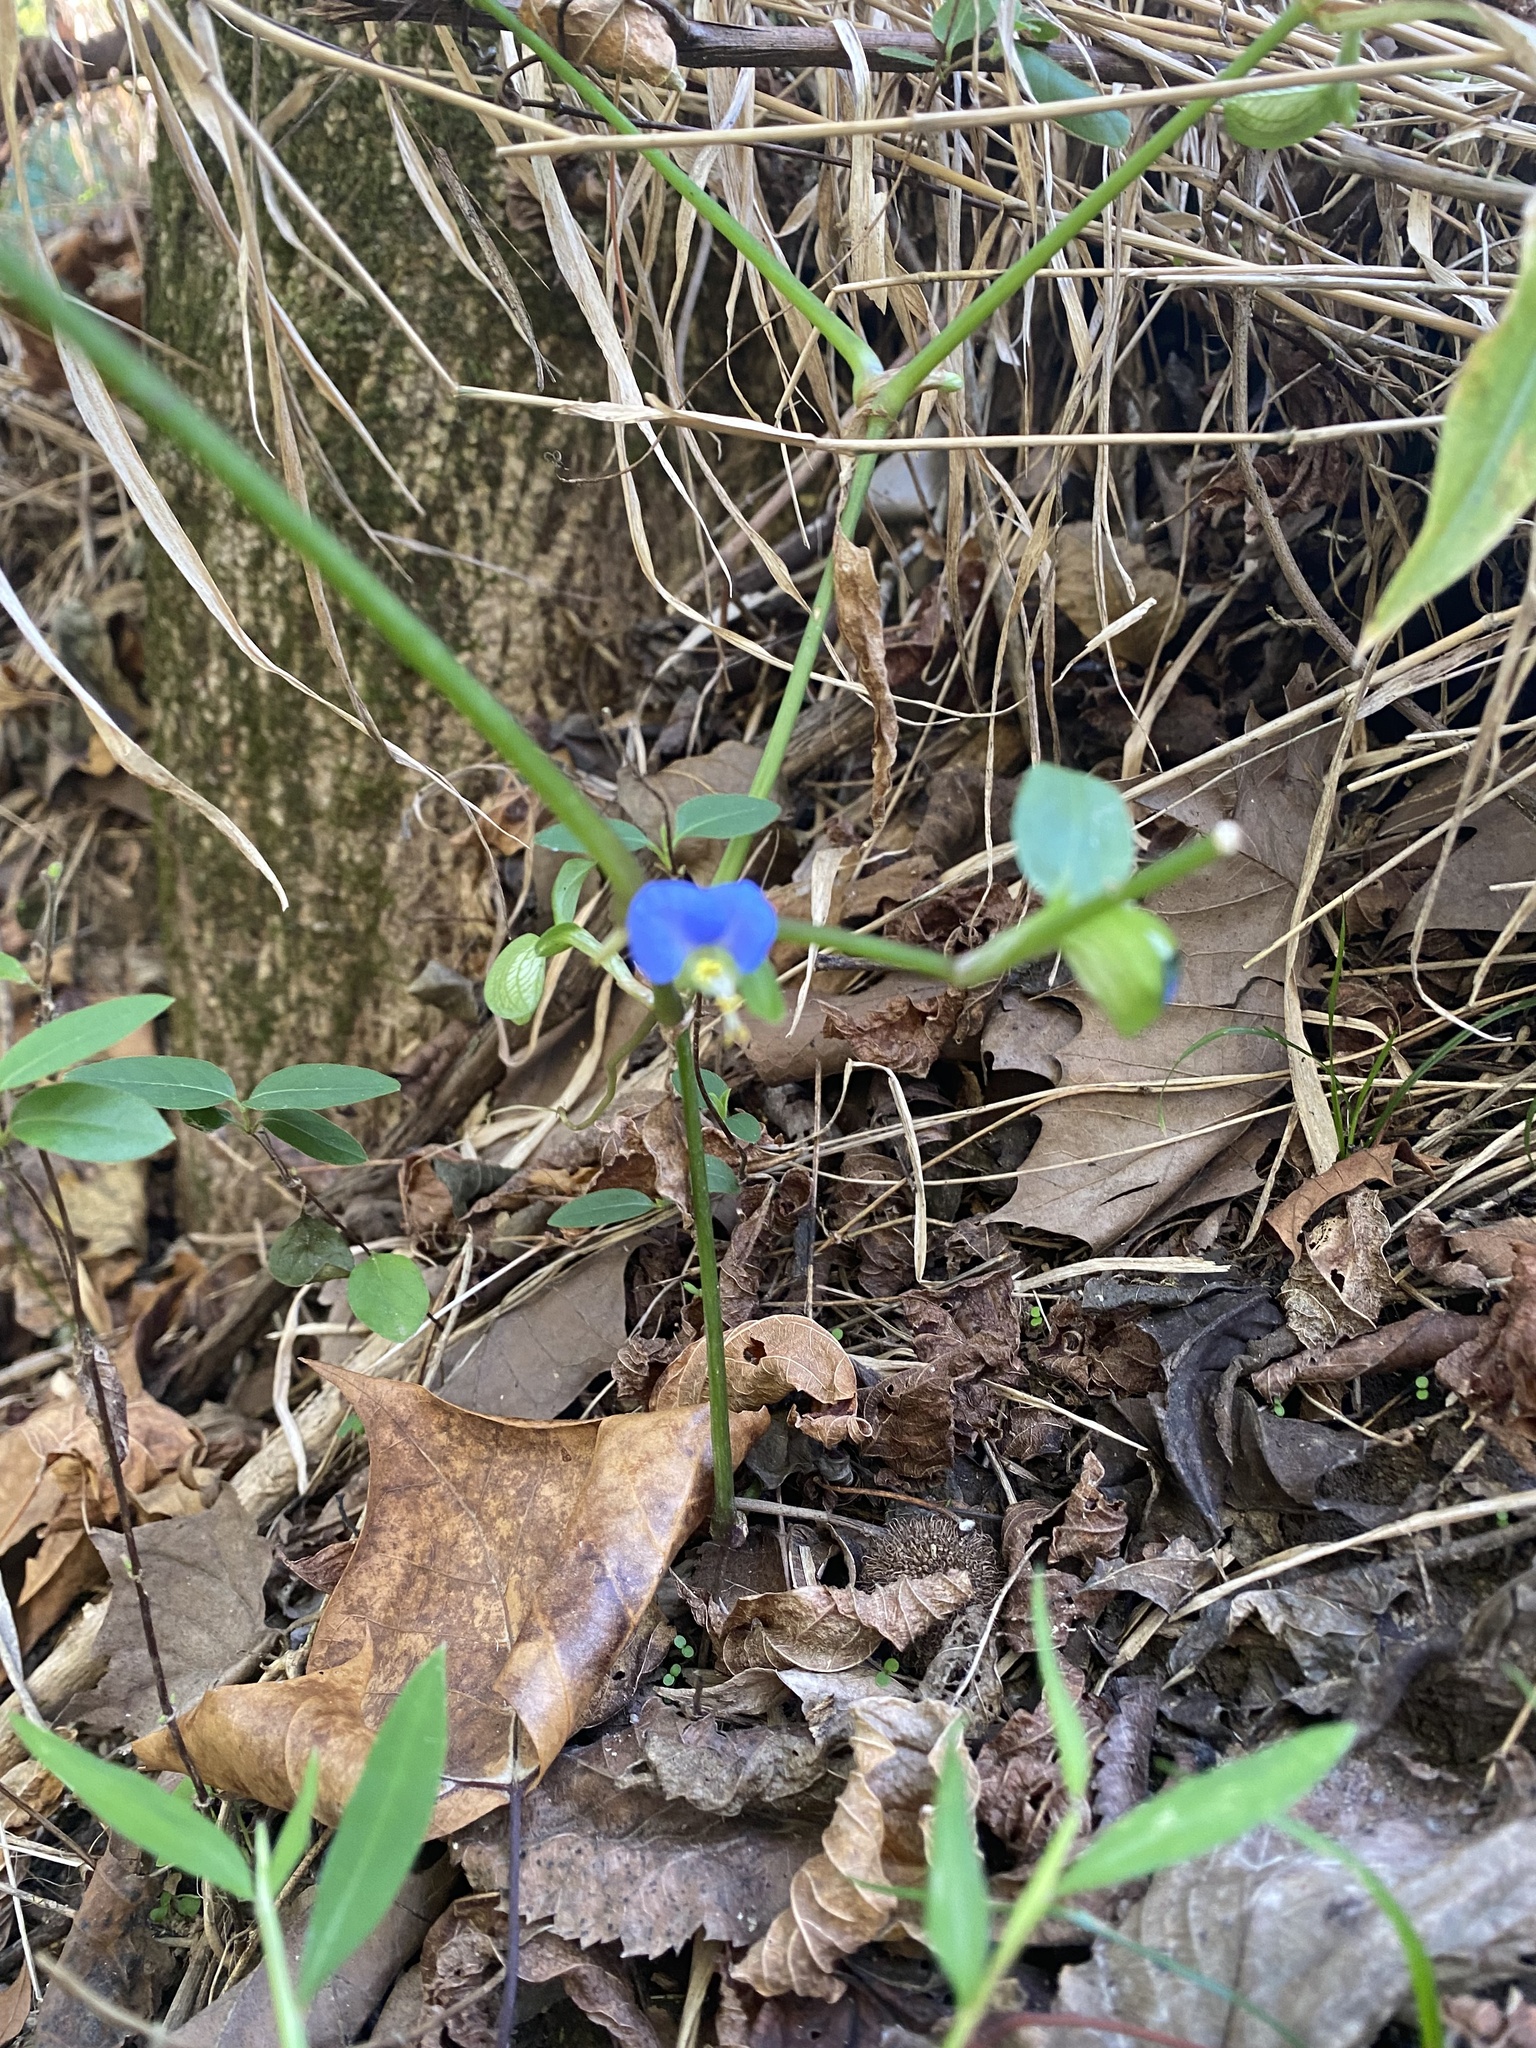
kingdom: Plantae
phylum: Tracheophyta
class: Liliopsida
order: Commelinales
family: Commelinaceae
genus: Commelina
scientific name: Commelina communis
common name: Asiatic dayflower
